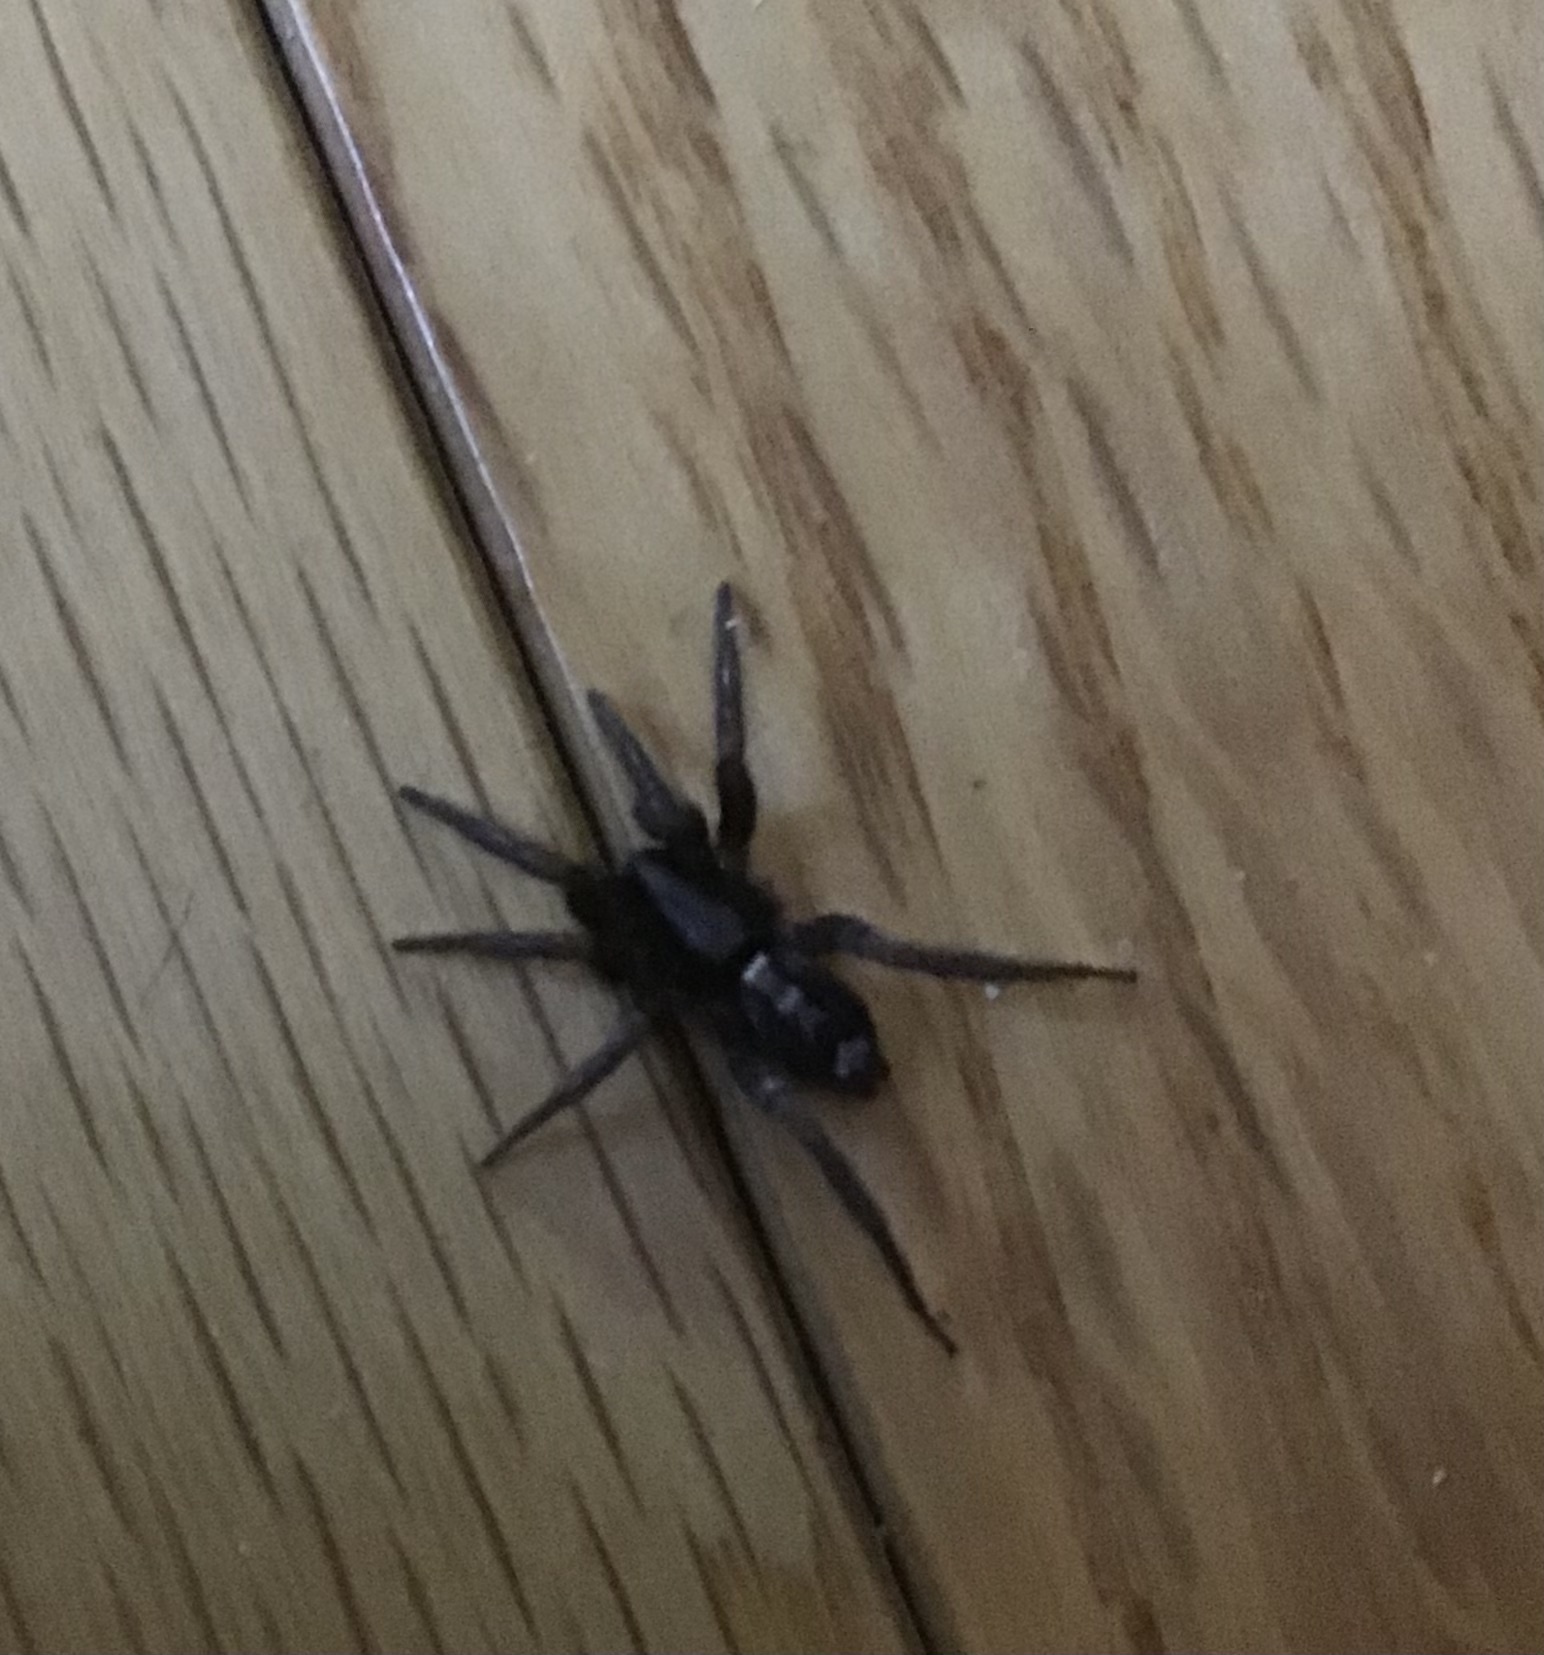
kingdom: Animalia
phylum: Arthropoda
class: Arachnida
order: Araneae
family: Gnaphosidae
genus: Herpyllus
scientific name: Herpyllus ecclesiasticus
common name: Eastern parson spider
